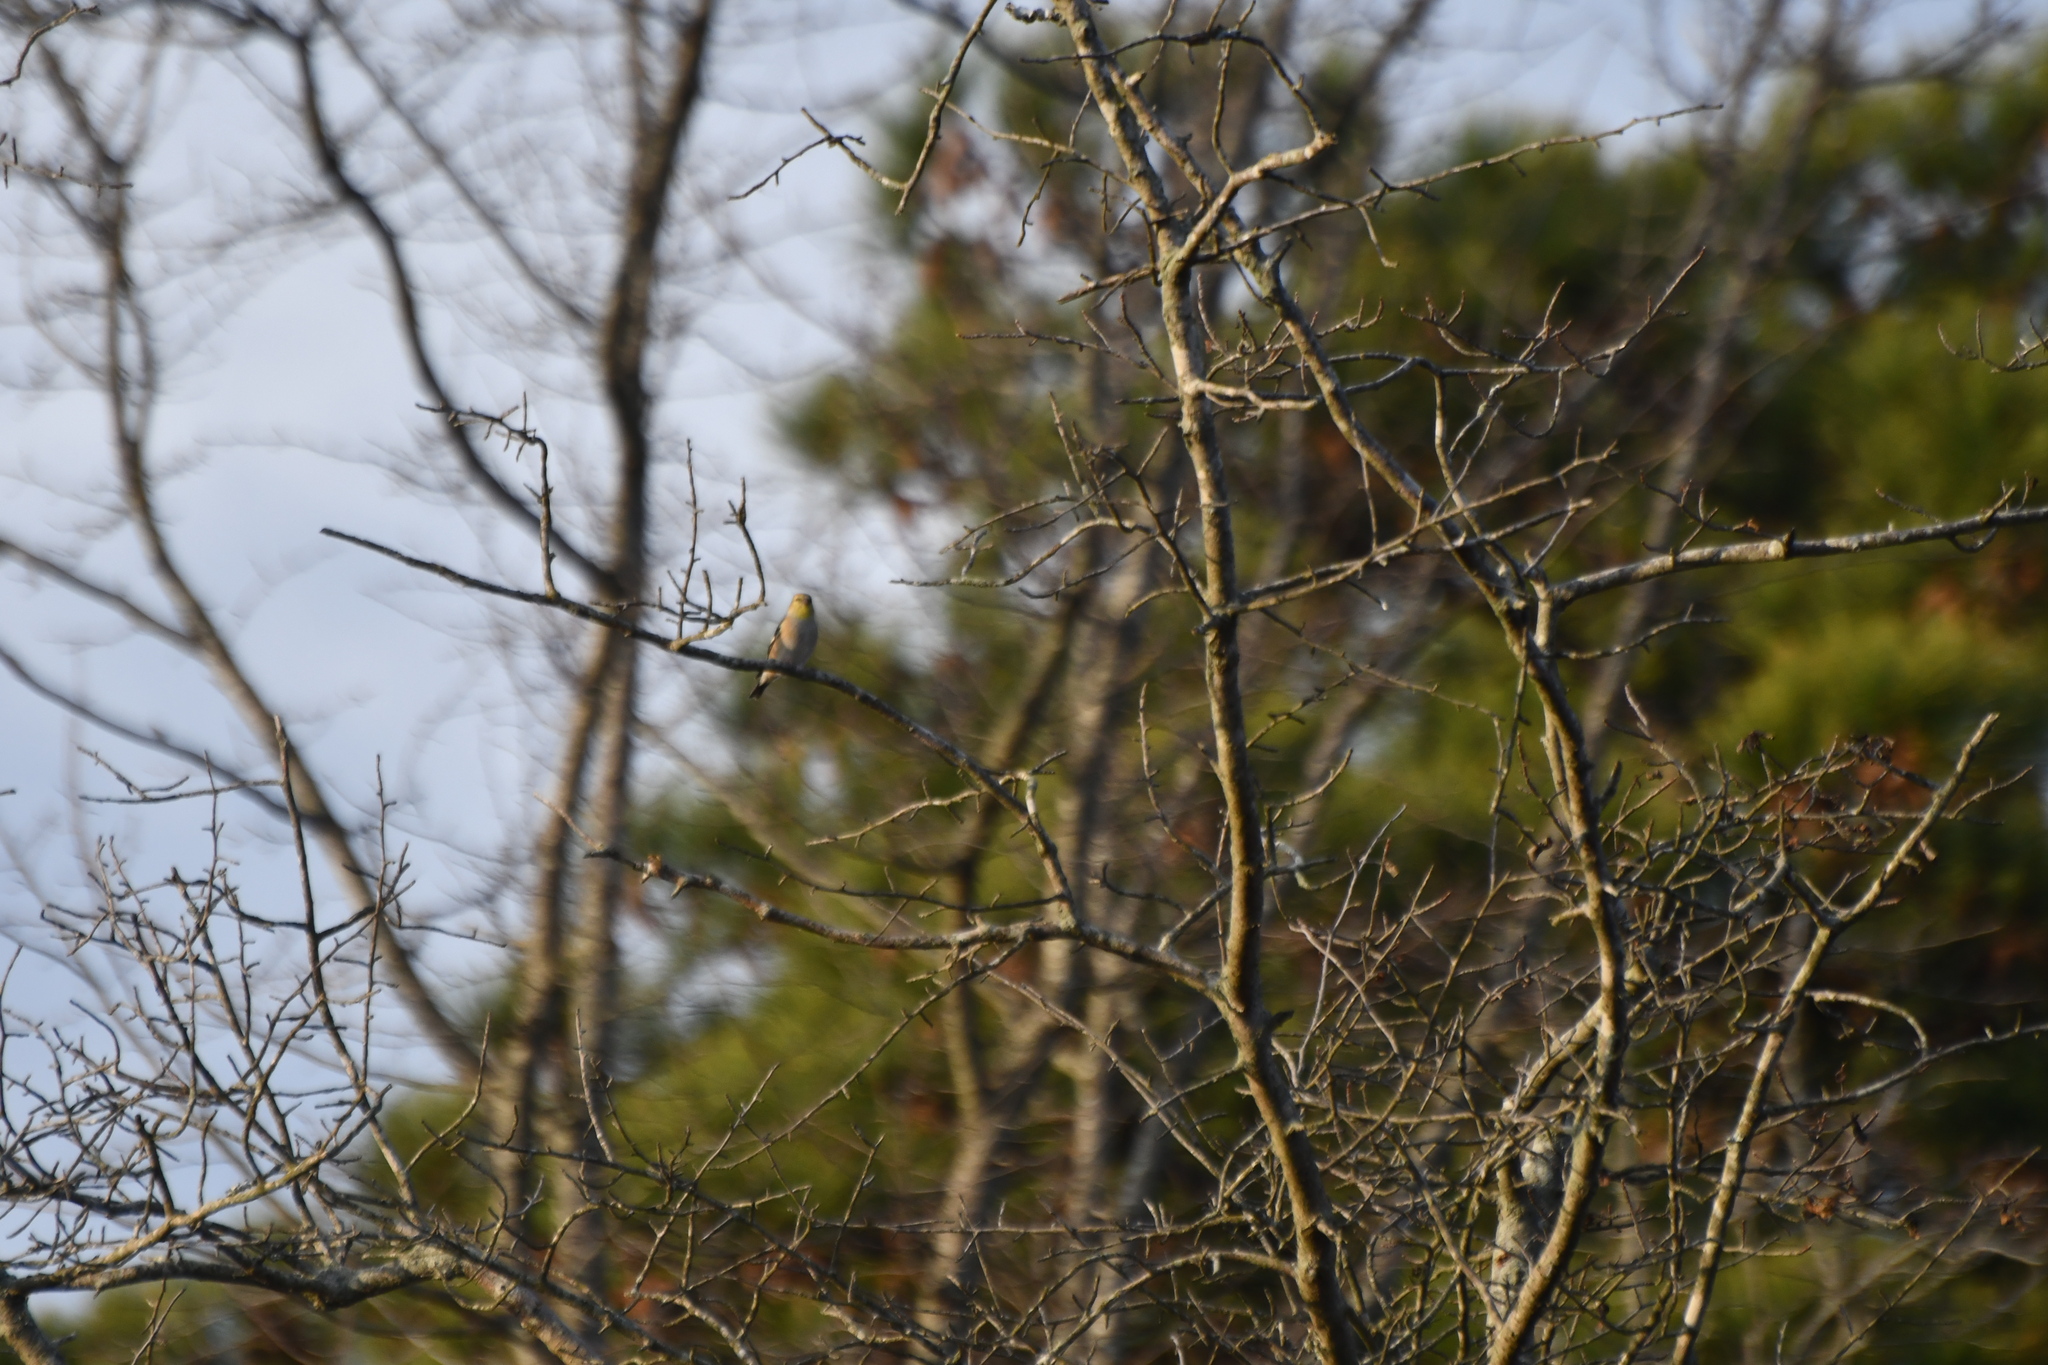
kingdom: Animalia
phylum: Chordata
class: Aves
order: Passeriformes
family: Fringillidae
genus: Spinus
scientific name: Spinus tristis
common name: American goldfinch
